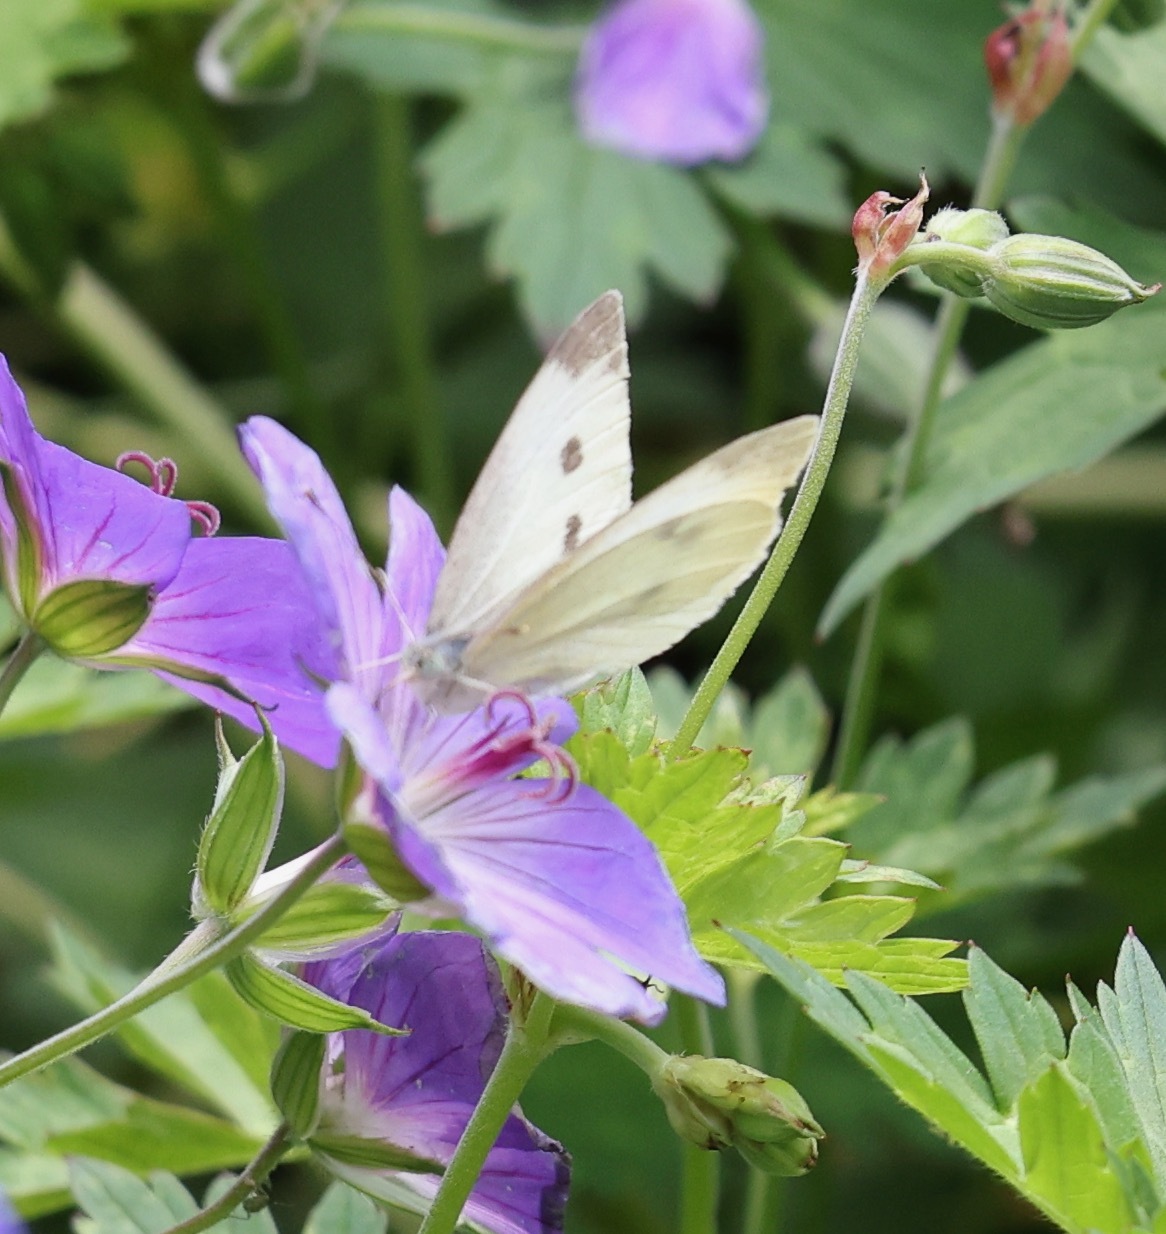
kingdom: Animalia
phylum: Arthropoda
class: Insecta
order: Lepidoptera
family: Pieridae
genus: Pieris
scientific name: Pieris rapae
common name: Small white
